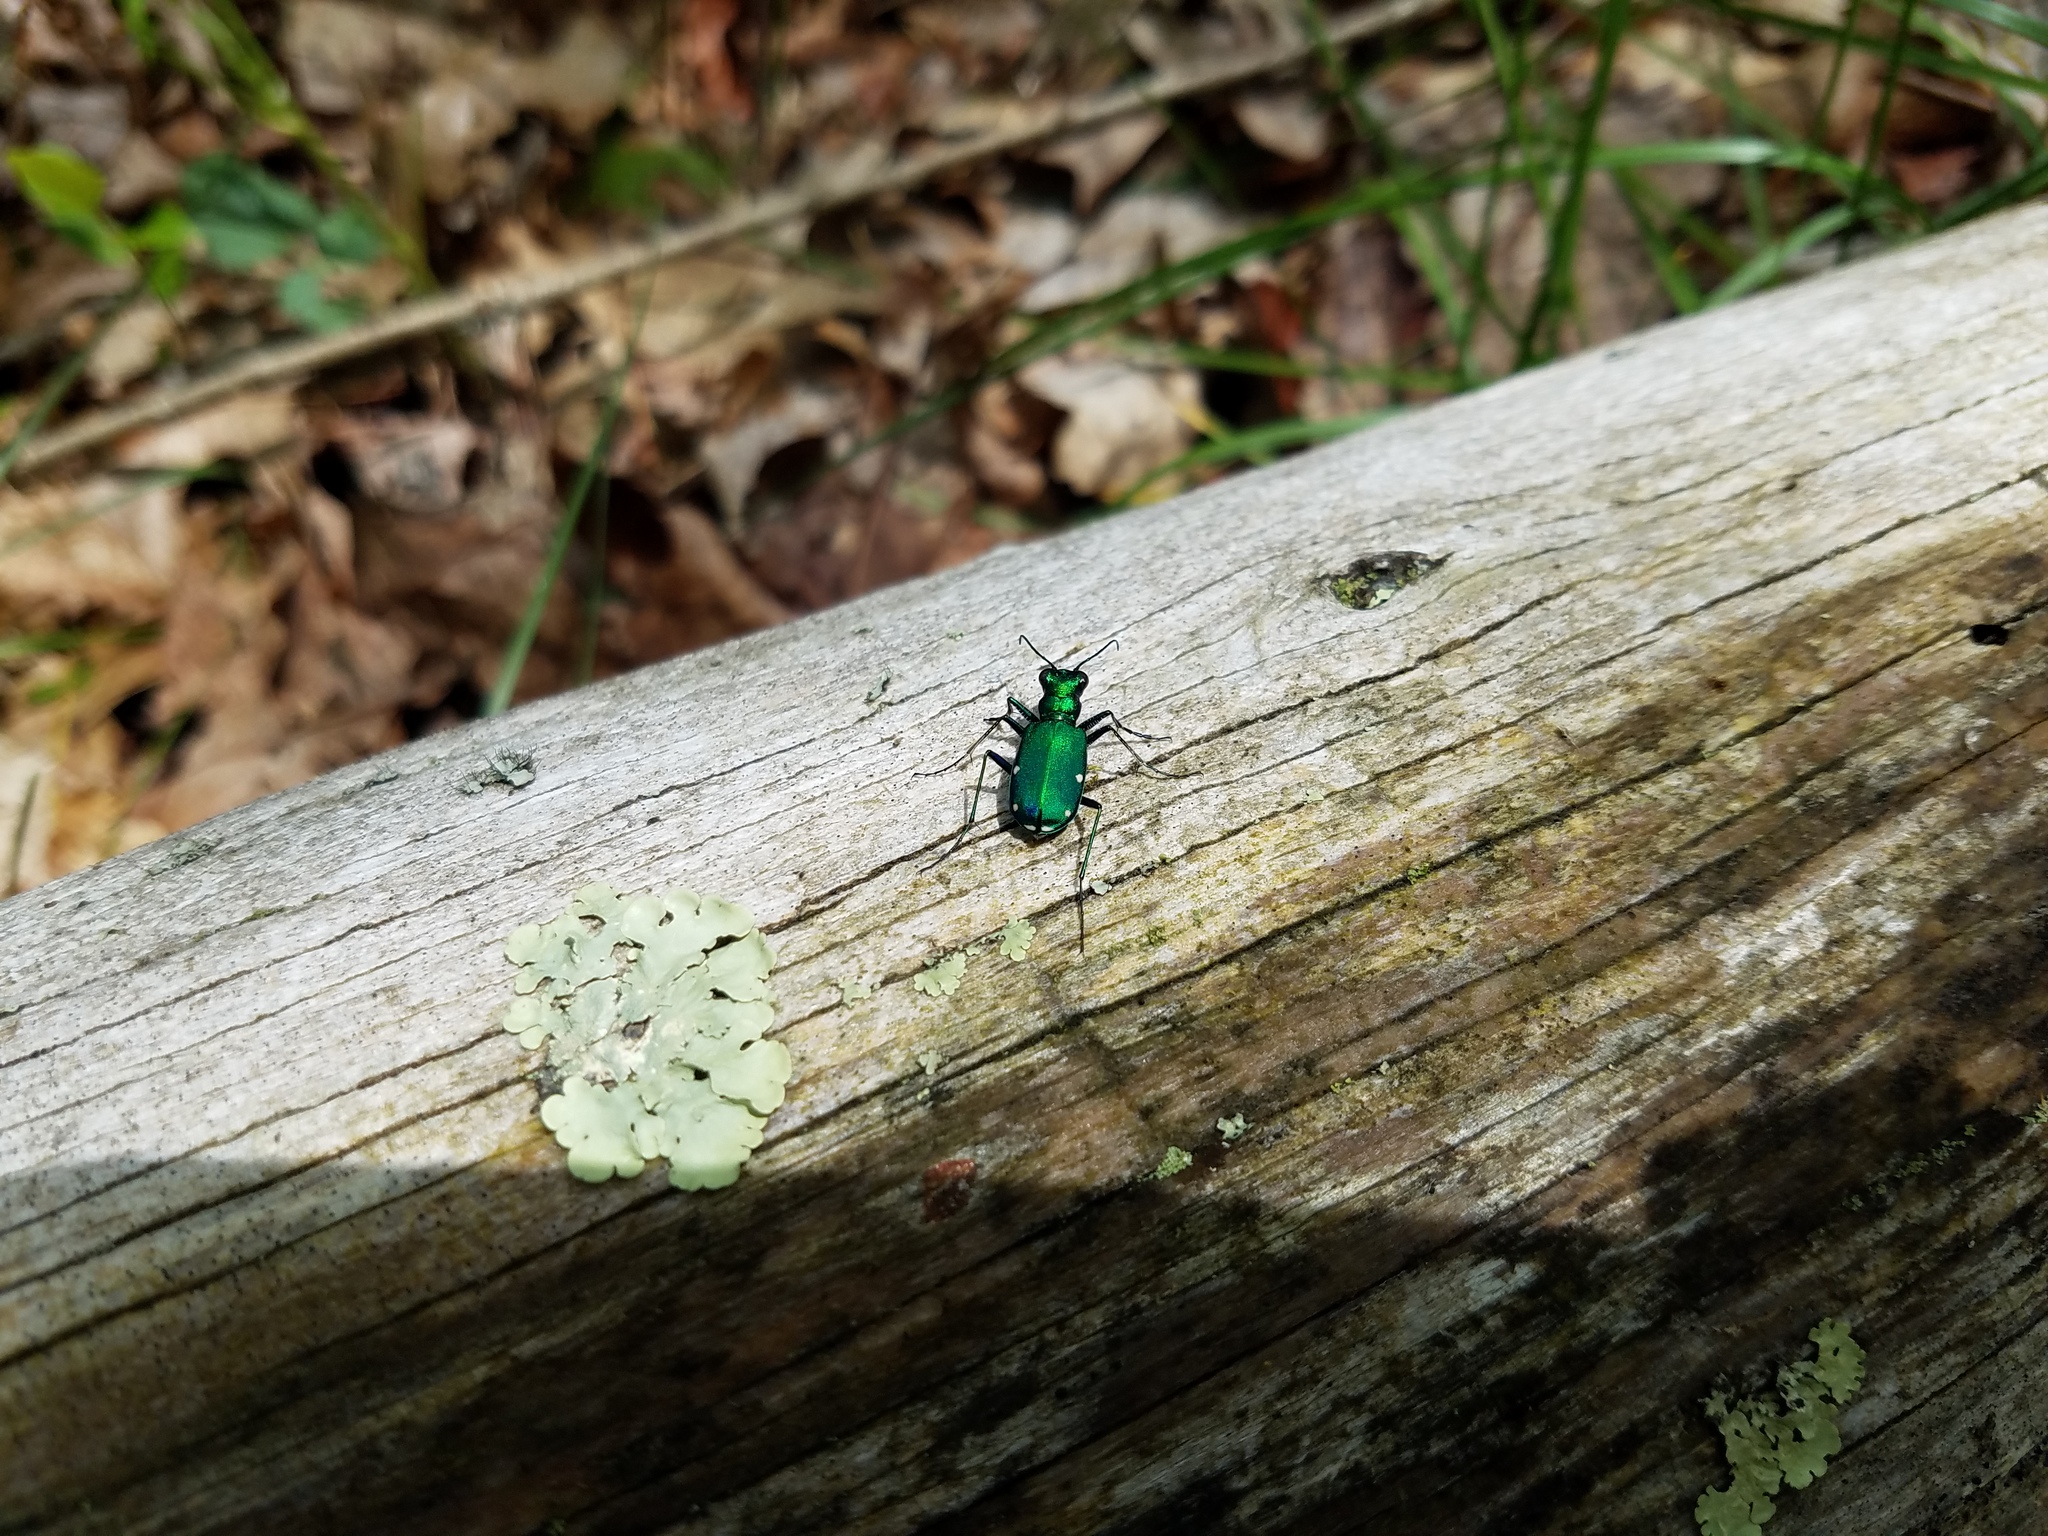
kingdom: Animalia
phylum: Arthropoda
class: Insecta
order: Coleoptera
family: Carabidae
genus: Cicindela
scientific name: Cicindela sexguttata
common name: Six-spotted tiger beetle
